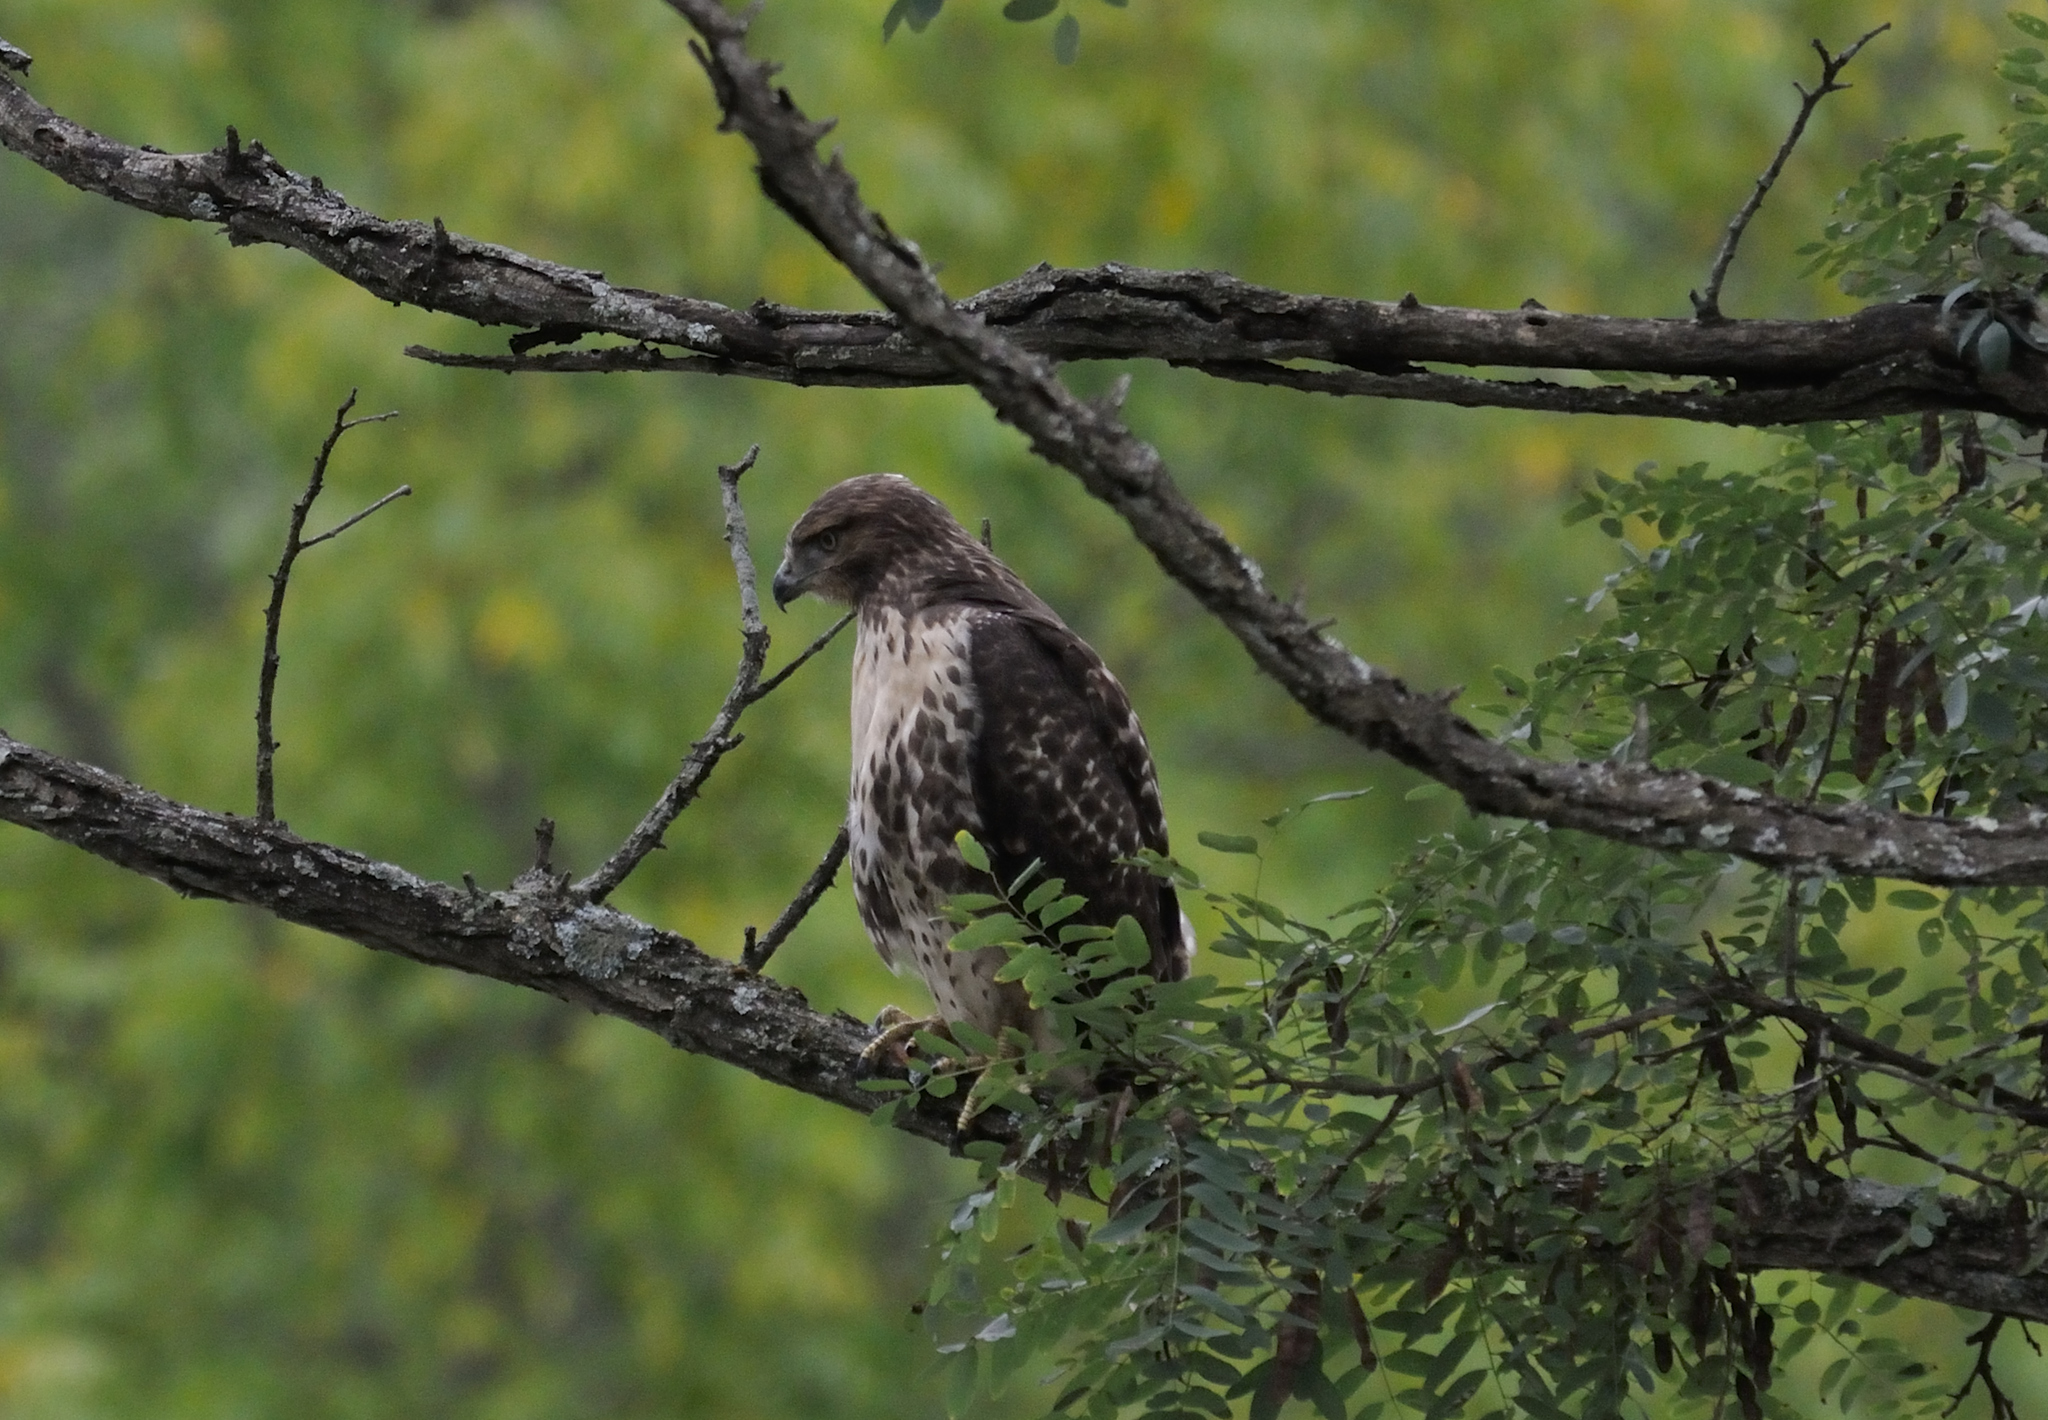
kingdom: Animalia
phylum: Chordata
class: Aves
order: Accipitriformes
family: Accipitridae
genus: Buteo
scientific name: Buteo jamaicensis
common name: Red-tailed hawk
